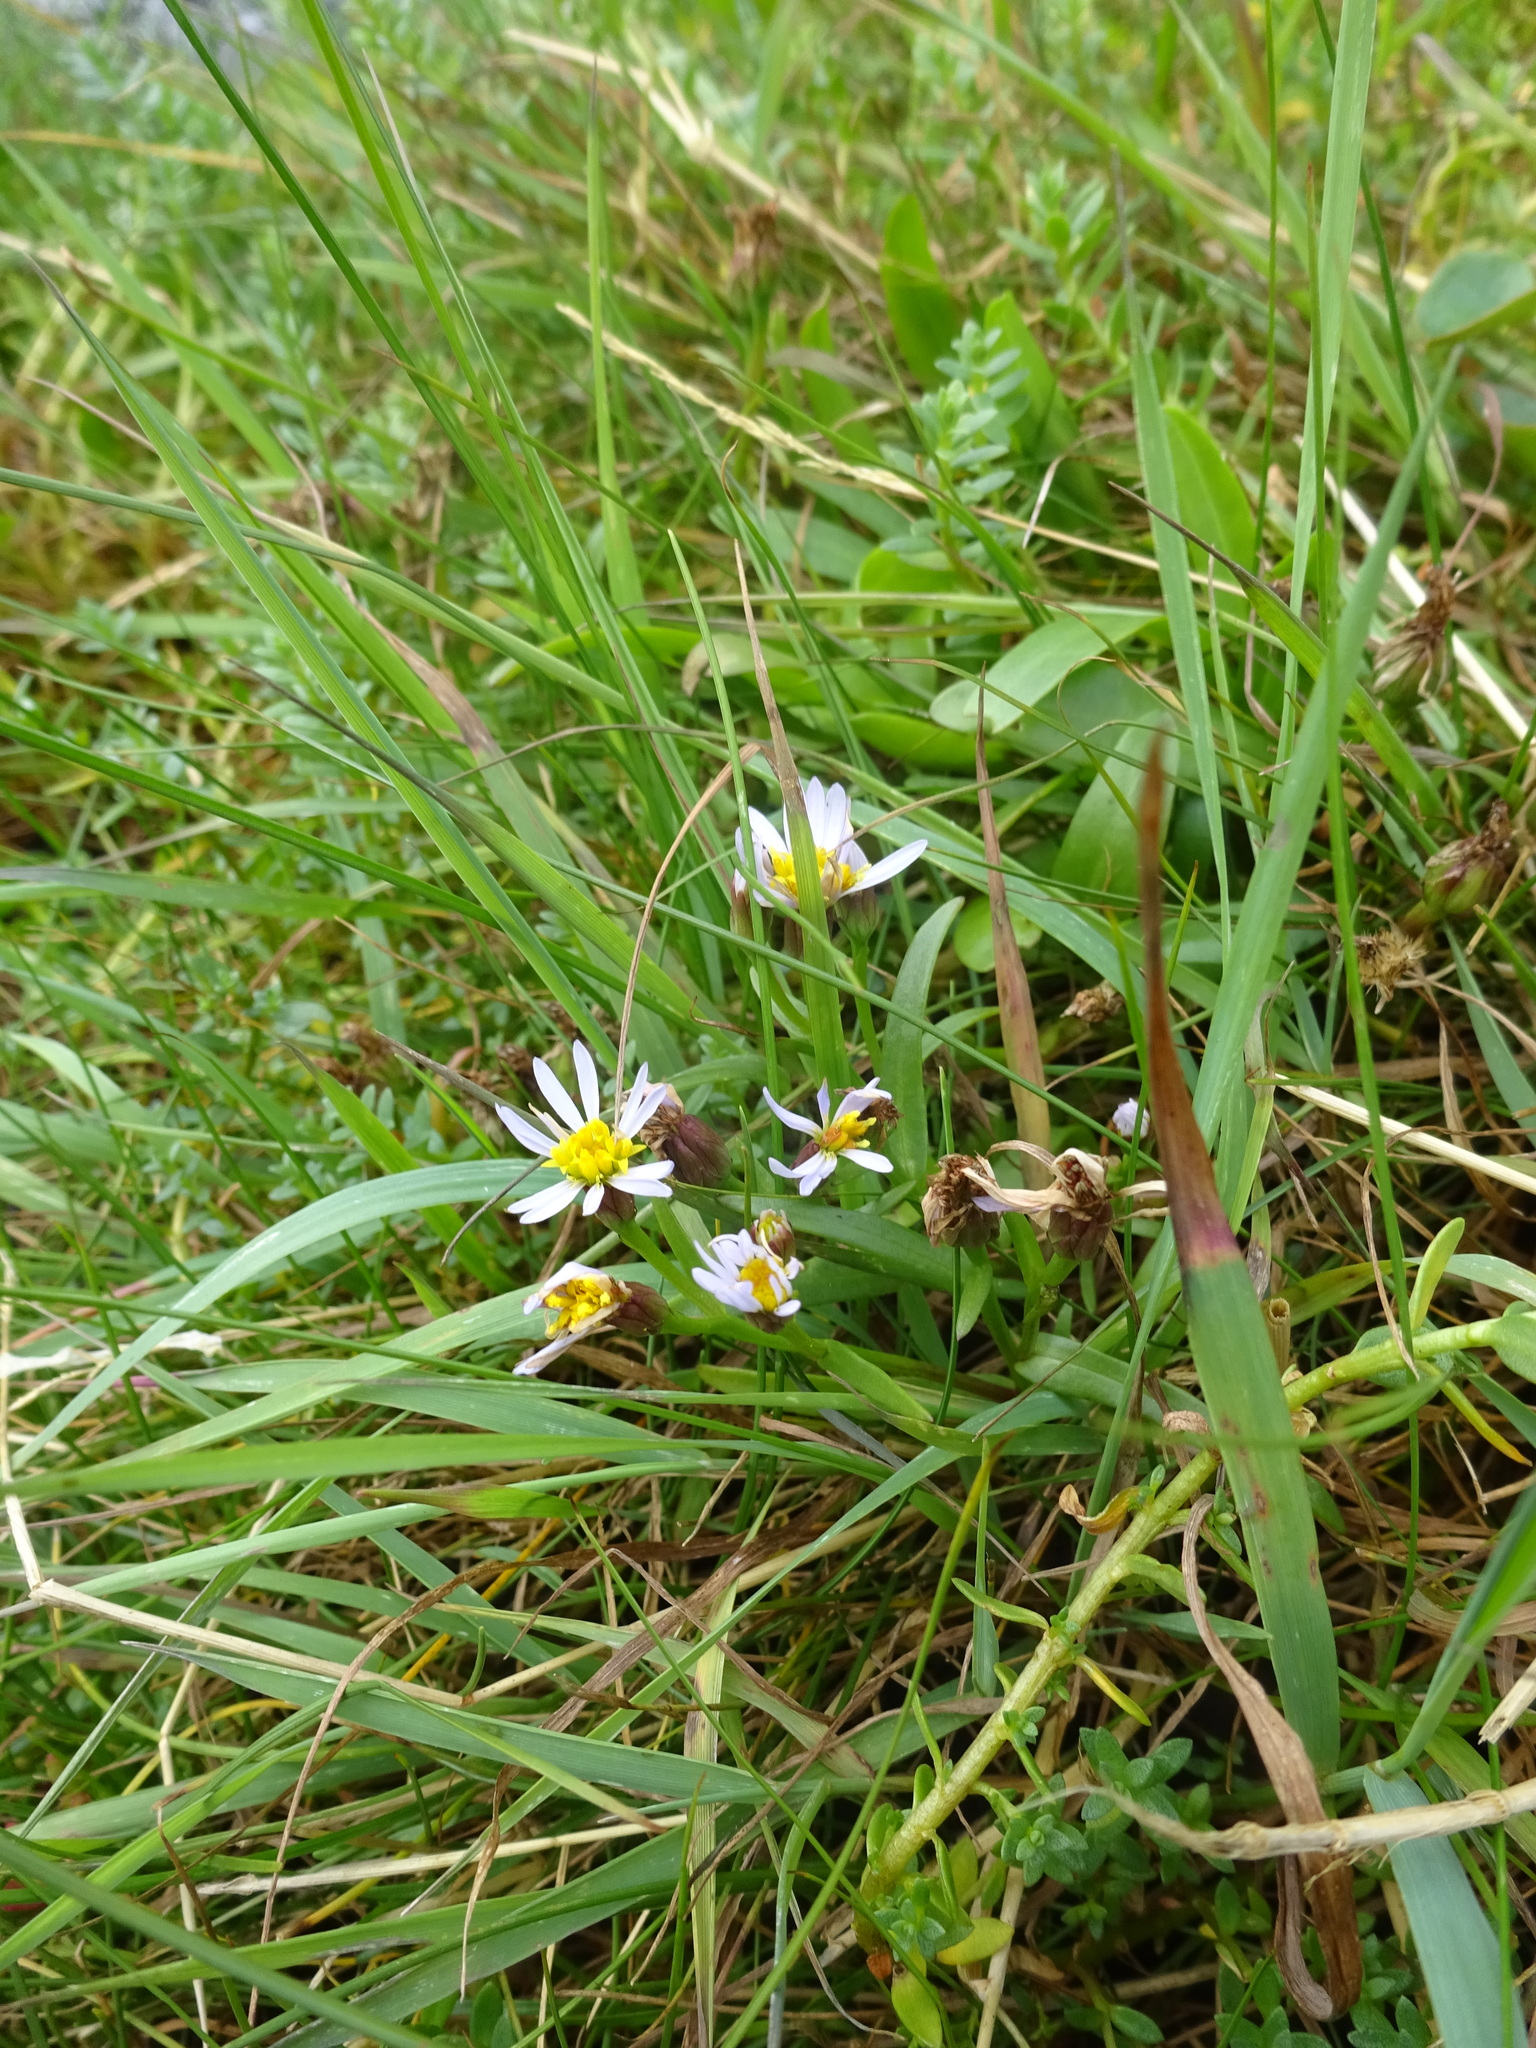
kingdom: Plantae
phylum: Tracheophyta
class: Magnoliopsida
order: Asterales
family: Asteraceae
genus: Tripolium
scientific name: Tripolium pannonicum
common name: Sea aster
